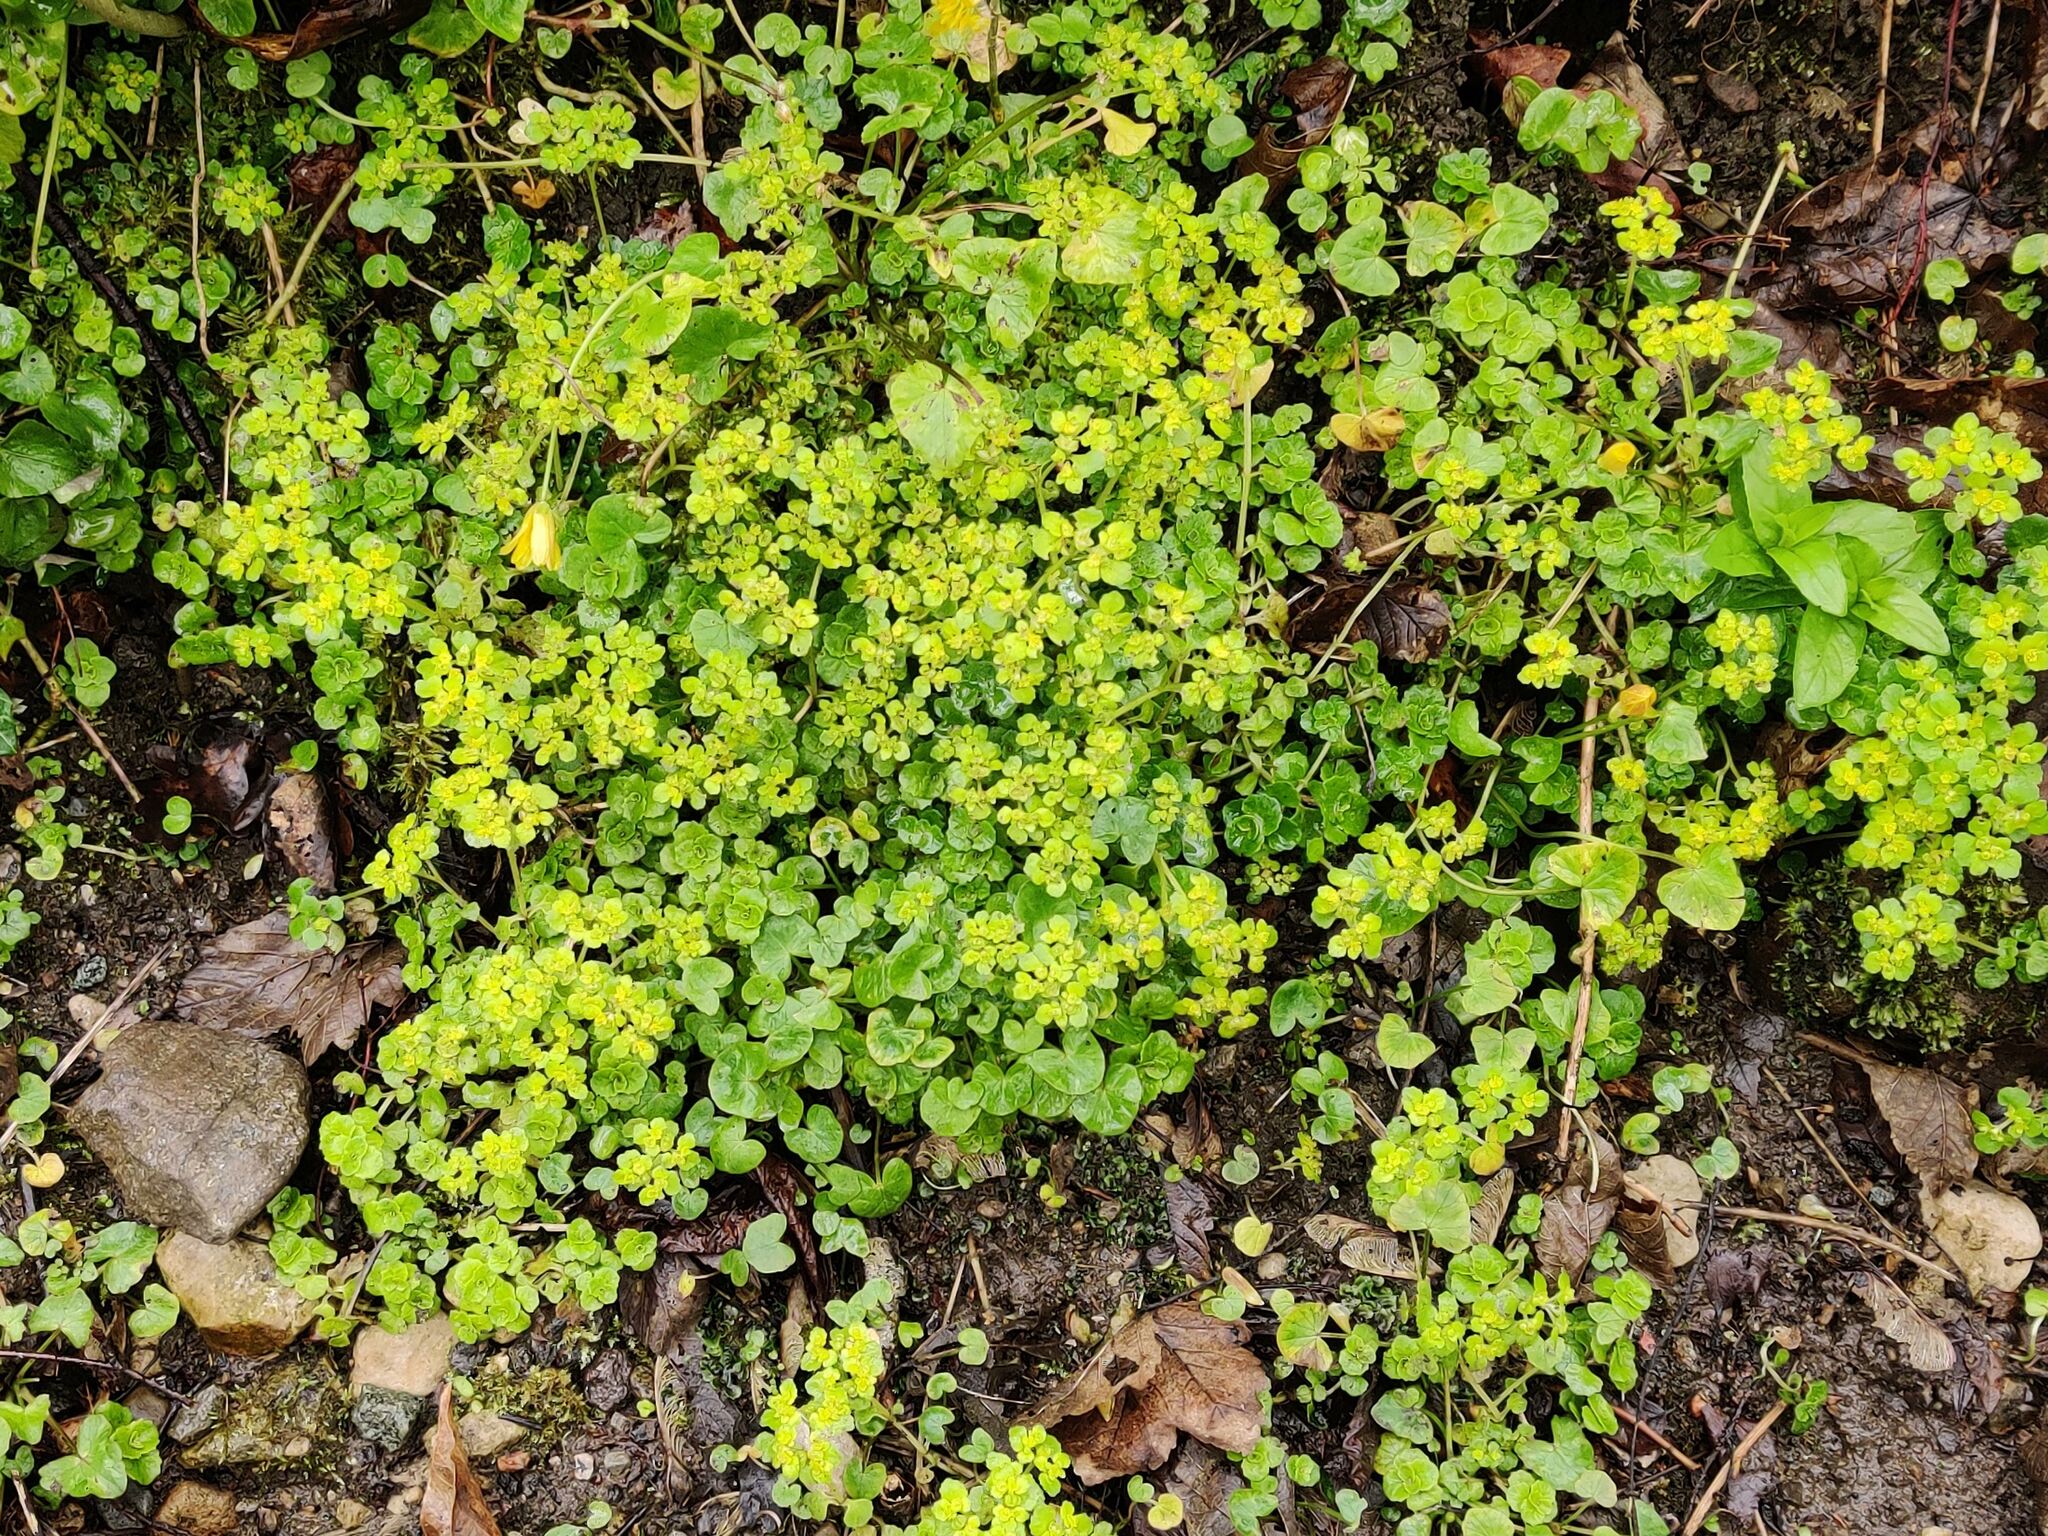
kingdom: Plantae
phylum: Tracheophyta
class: Magnoliopsida
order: Saxifragales
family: Saxifragaceae
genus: Chrysosplenium
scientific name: Chrysosplenium oppositifolium
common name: Opposite-leaved golden-saxifrage
